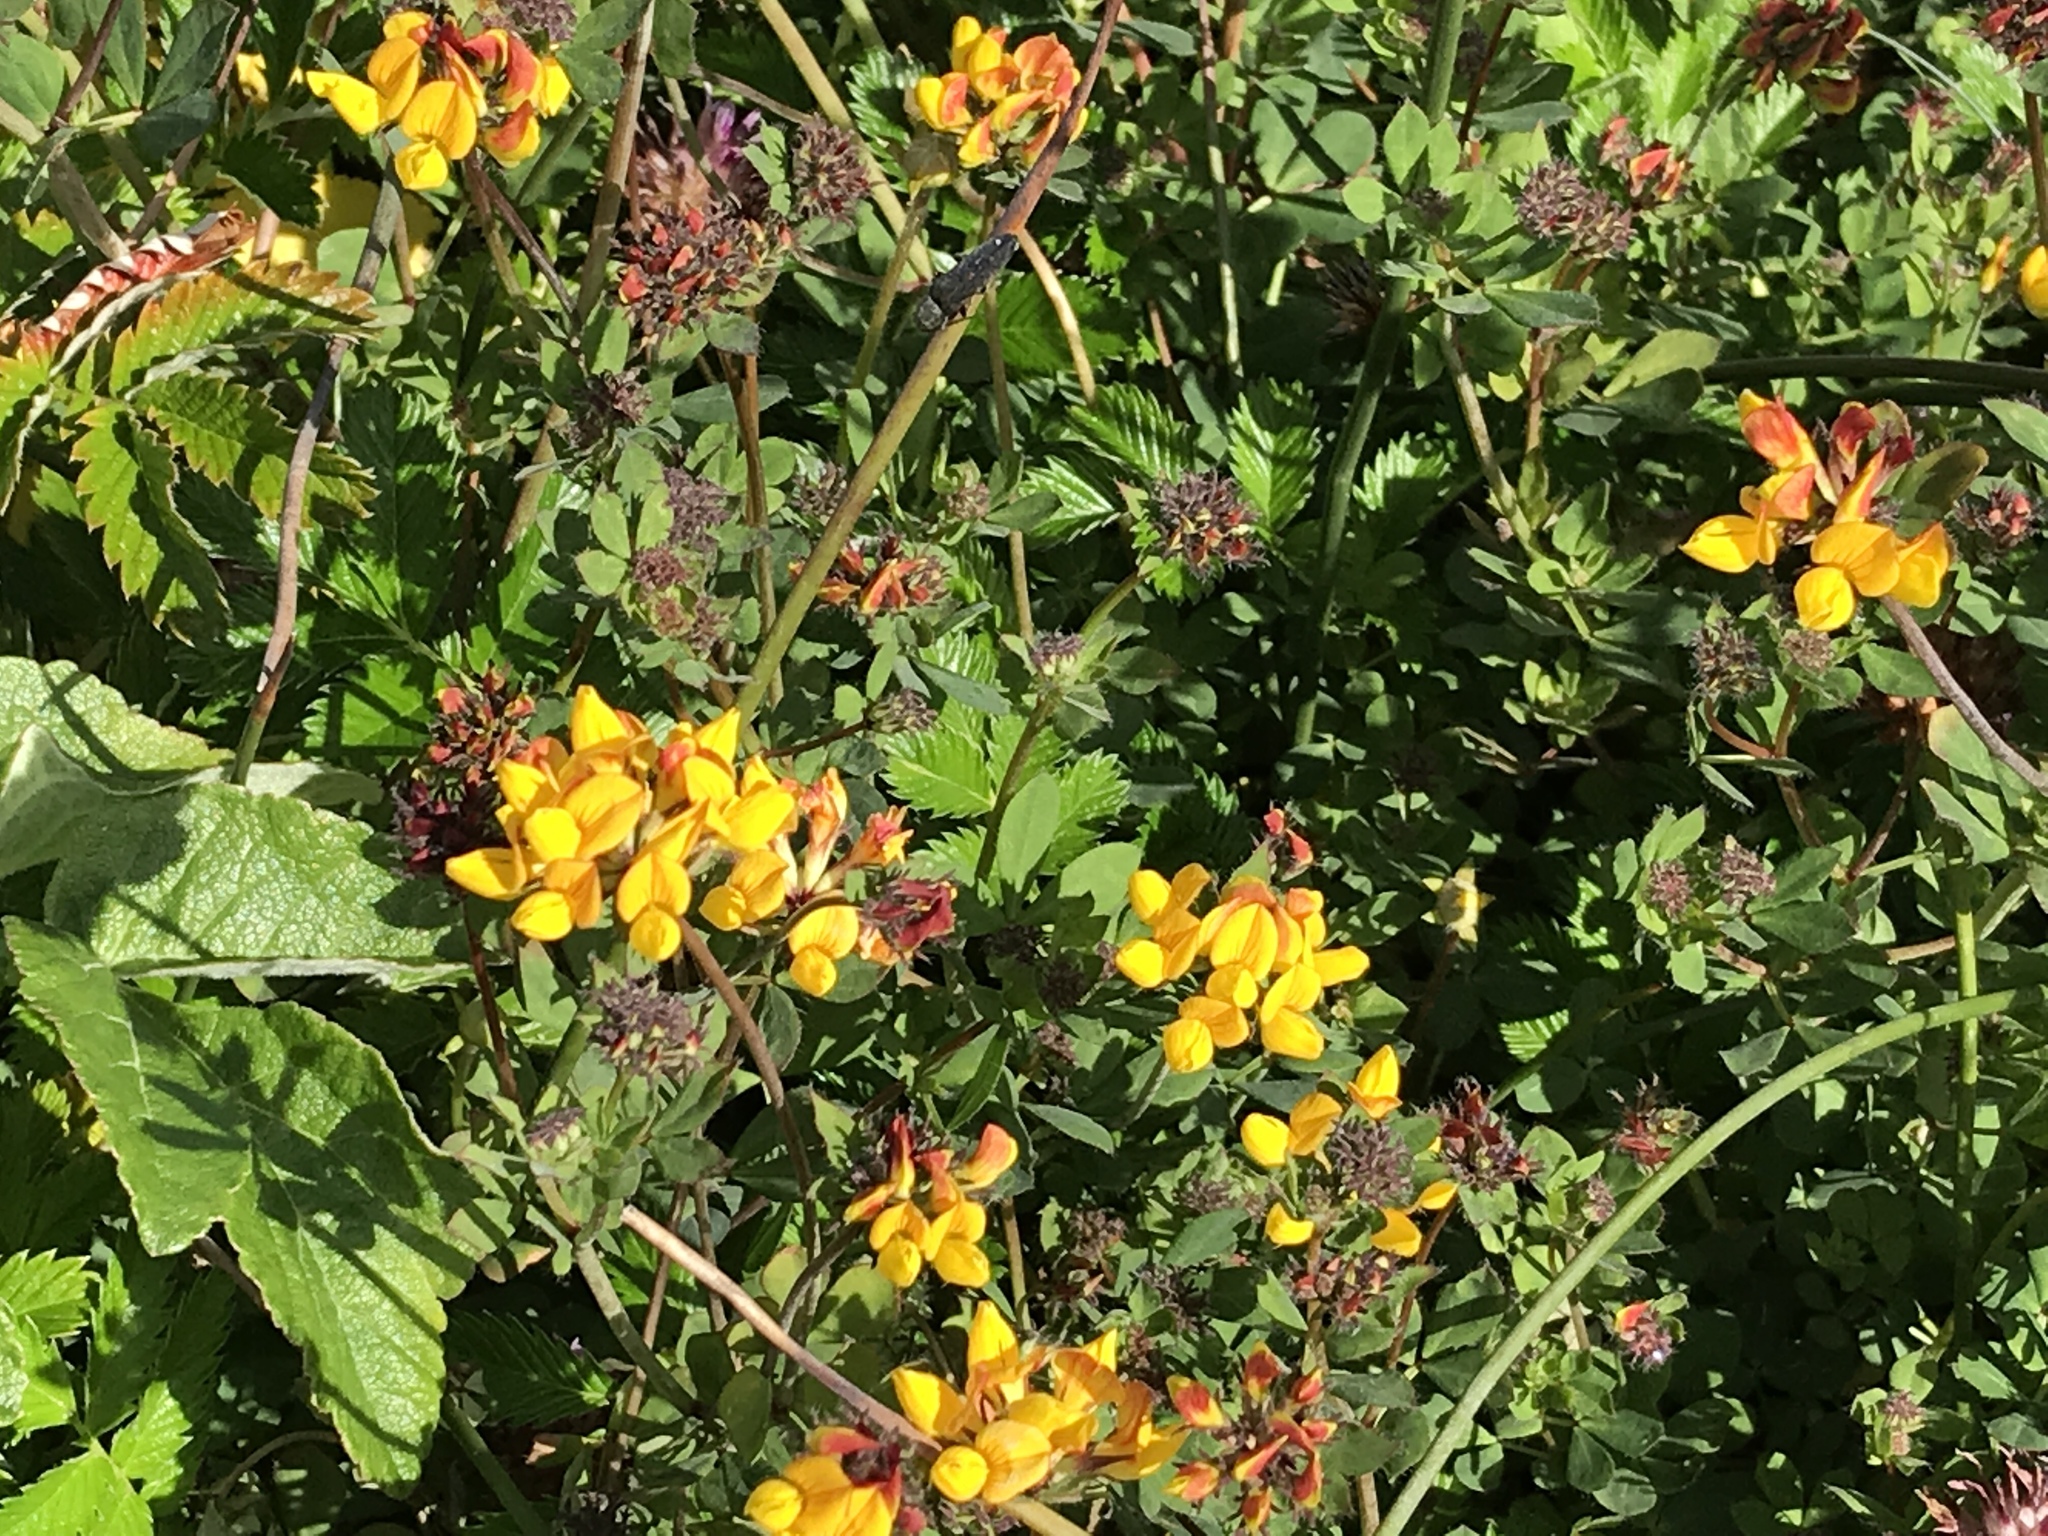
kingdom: Plantae
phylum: Tracheophyta
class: Magnoliopsida
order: Fabales
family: Fabaceae
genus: Lotus
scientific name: Lotus pedunculatus
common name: Greater birdsfoot-trefoil
